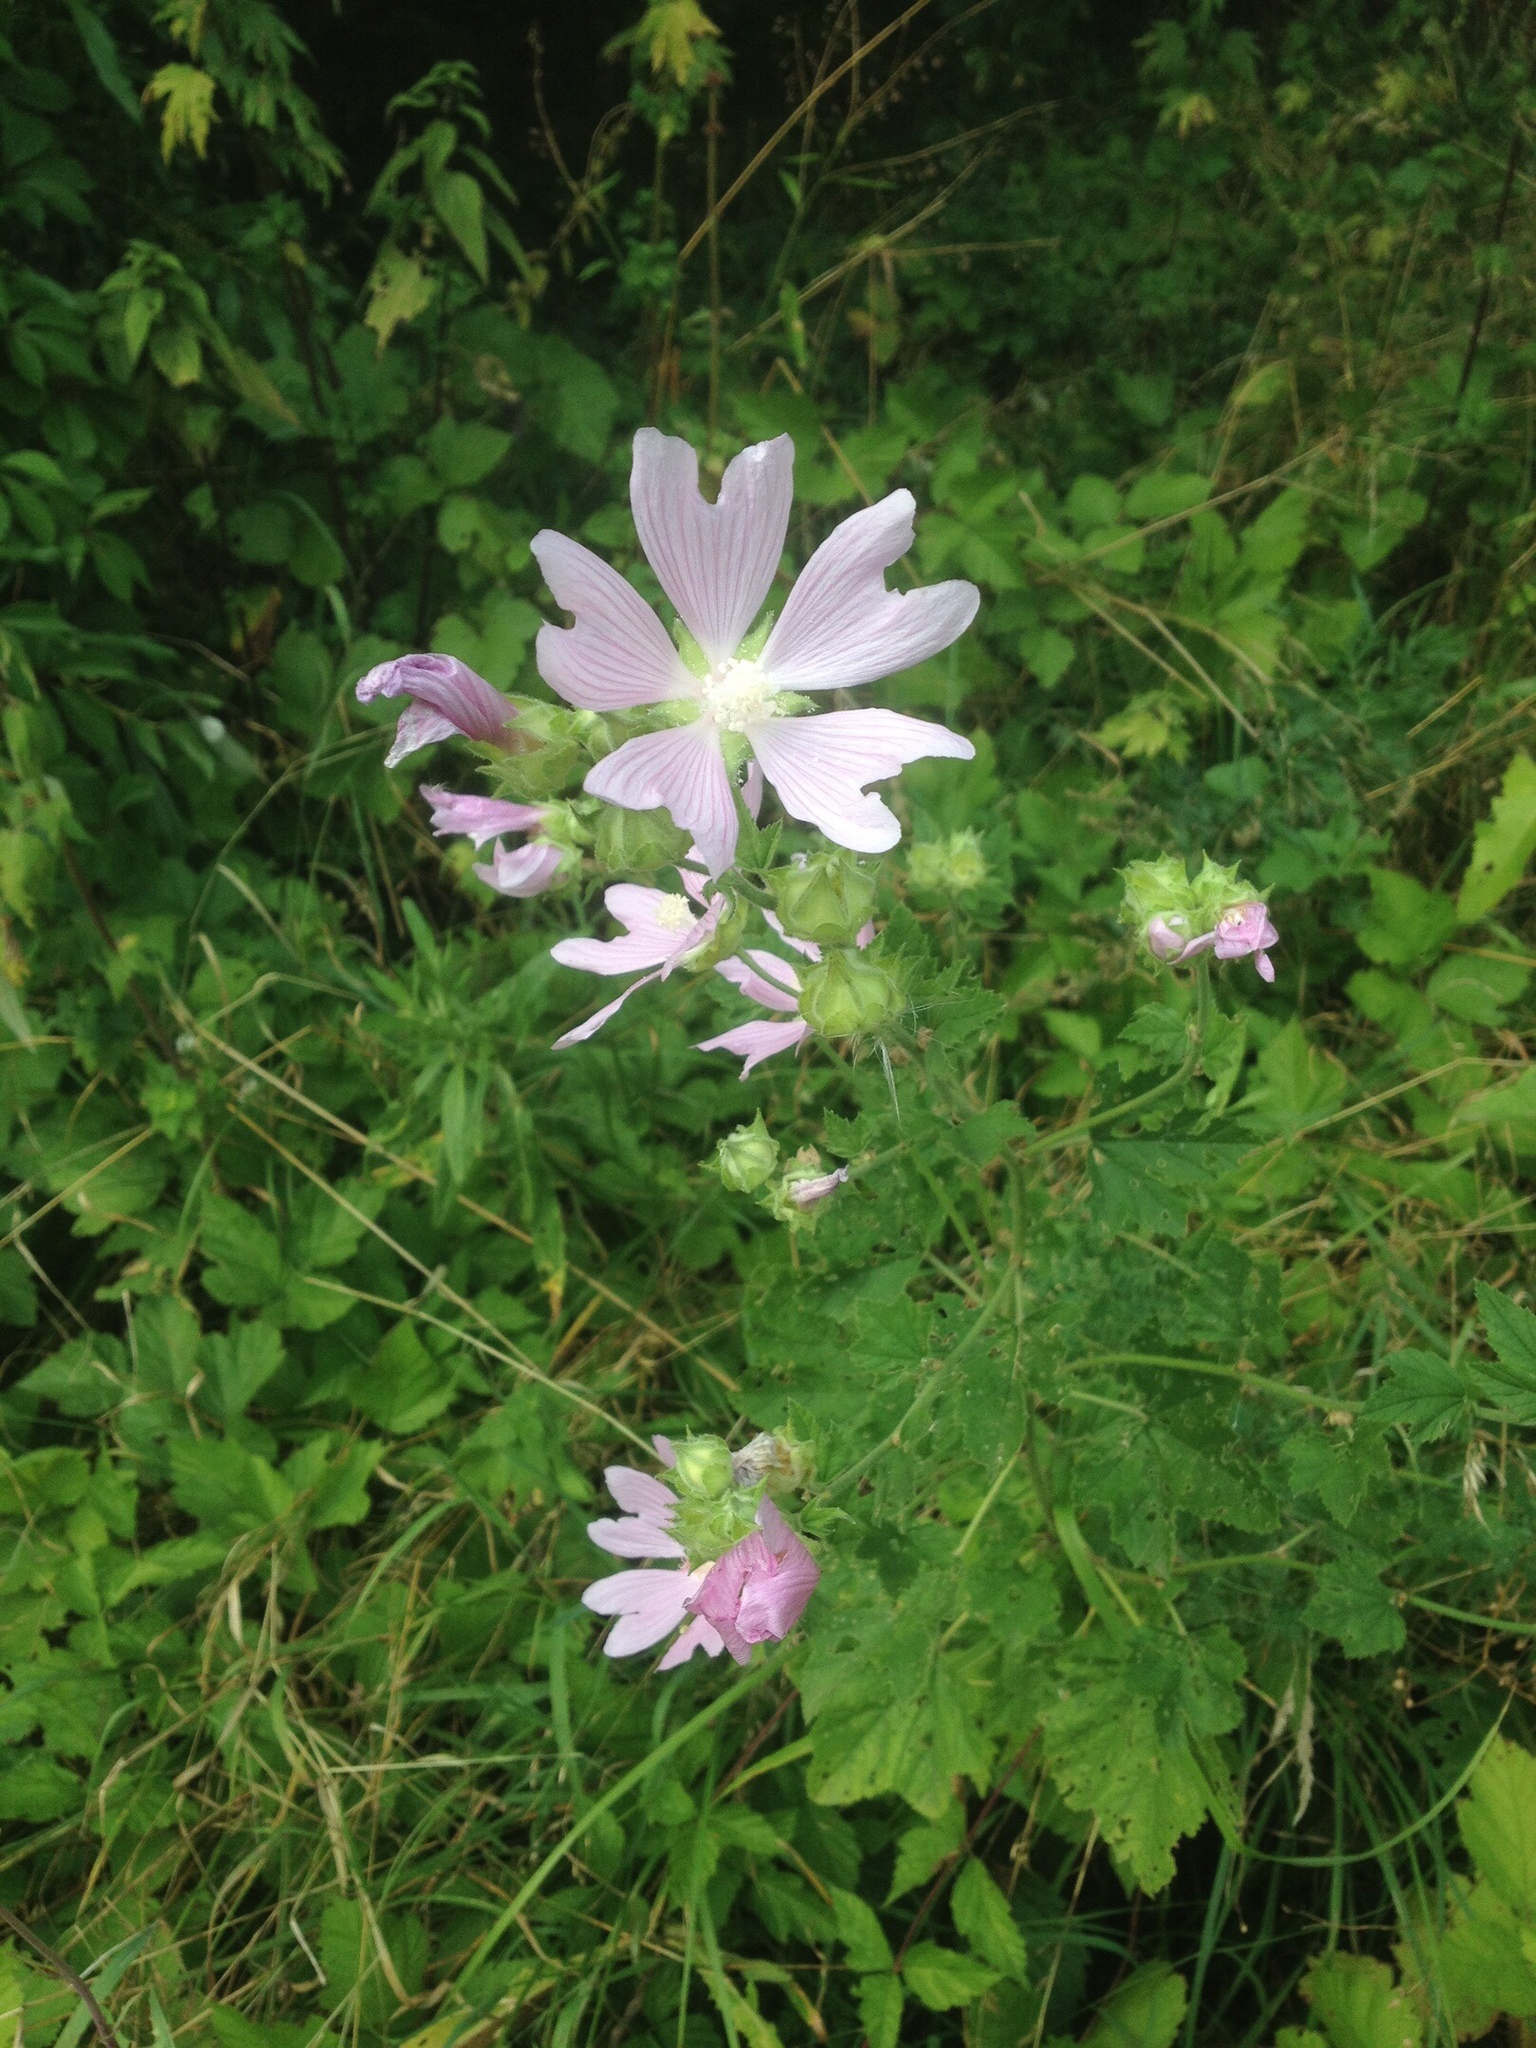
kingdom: Plantae
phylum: Tracheophyta
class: Magnoliopsida
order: Malvales
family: Malvaceae
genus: Malva
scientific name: Malva thuringiaca
